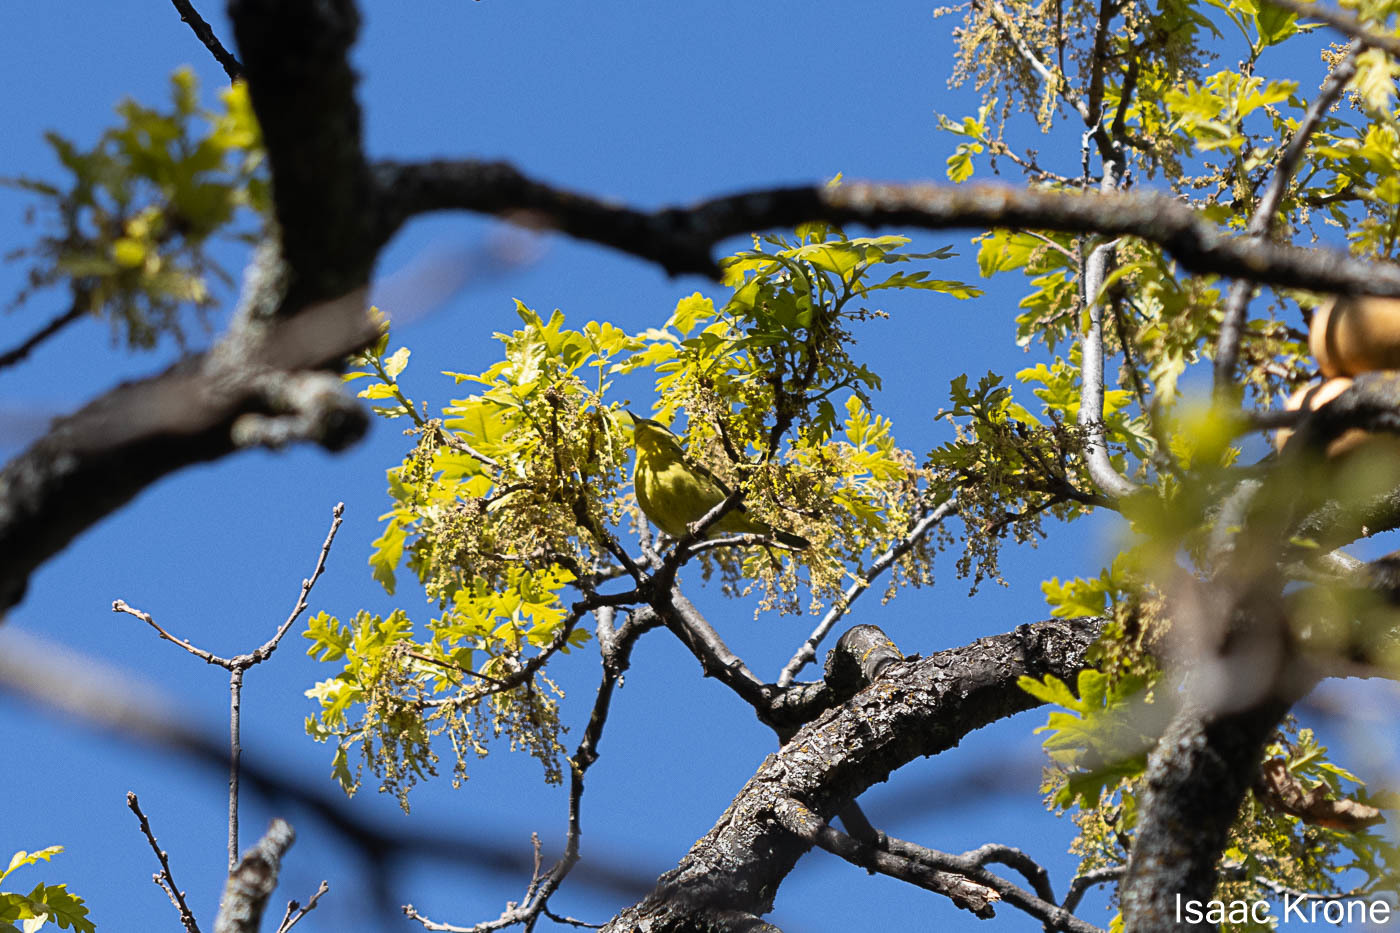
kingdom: Animalia
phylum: Chordata
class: Aves
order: Passeriformes
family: Parulidae
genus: Leiothlypis
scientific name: Leiothlypis celata
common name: Orange-crowned warbler
